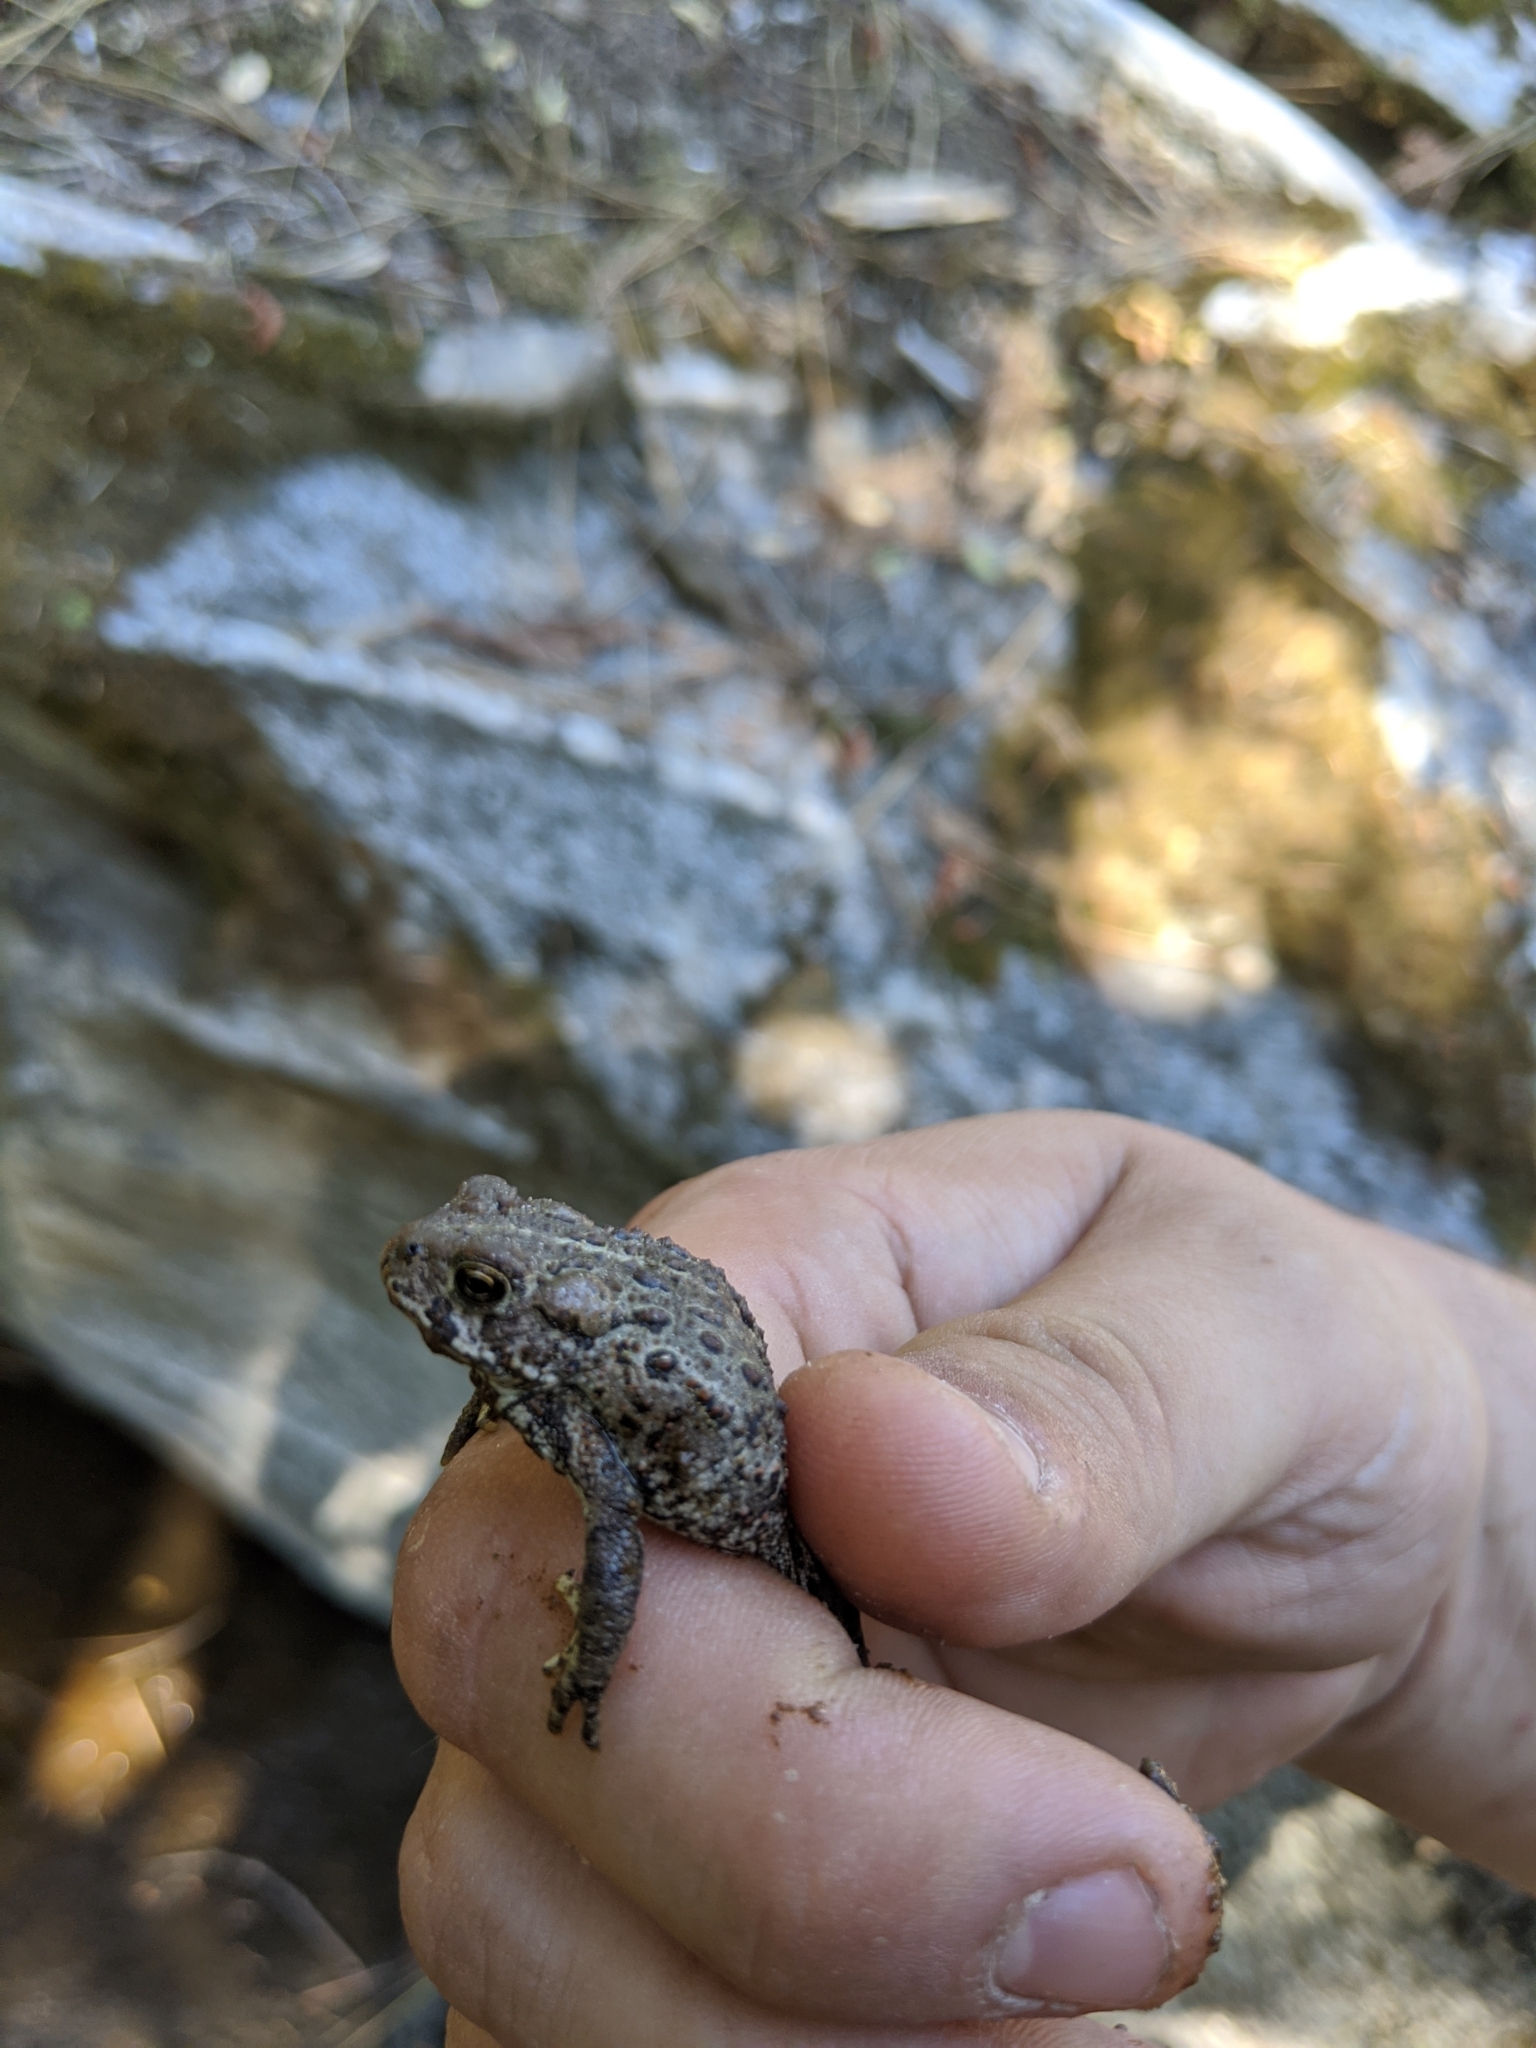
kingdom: Animalia
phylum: Chordata
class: Amphibia
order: Anura
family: Bufonidae
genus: Anaxyrus
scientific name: Anaxyrus boreas
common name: Western toad
